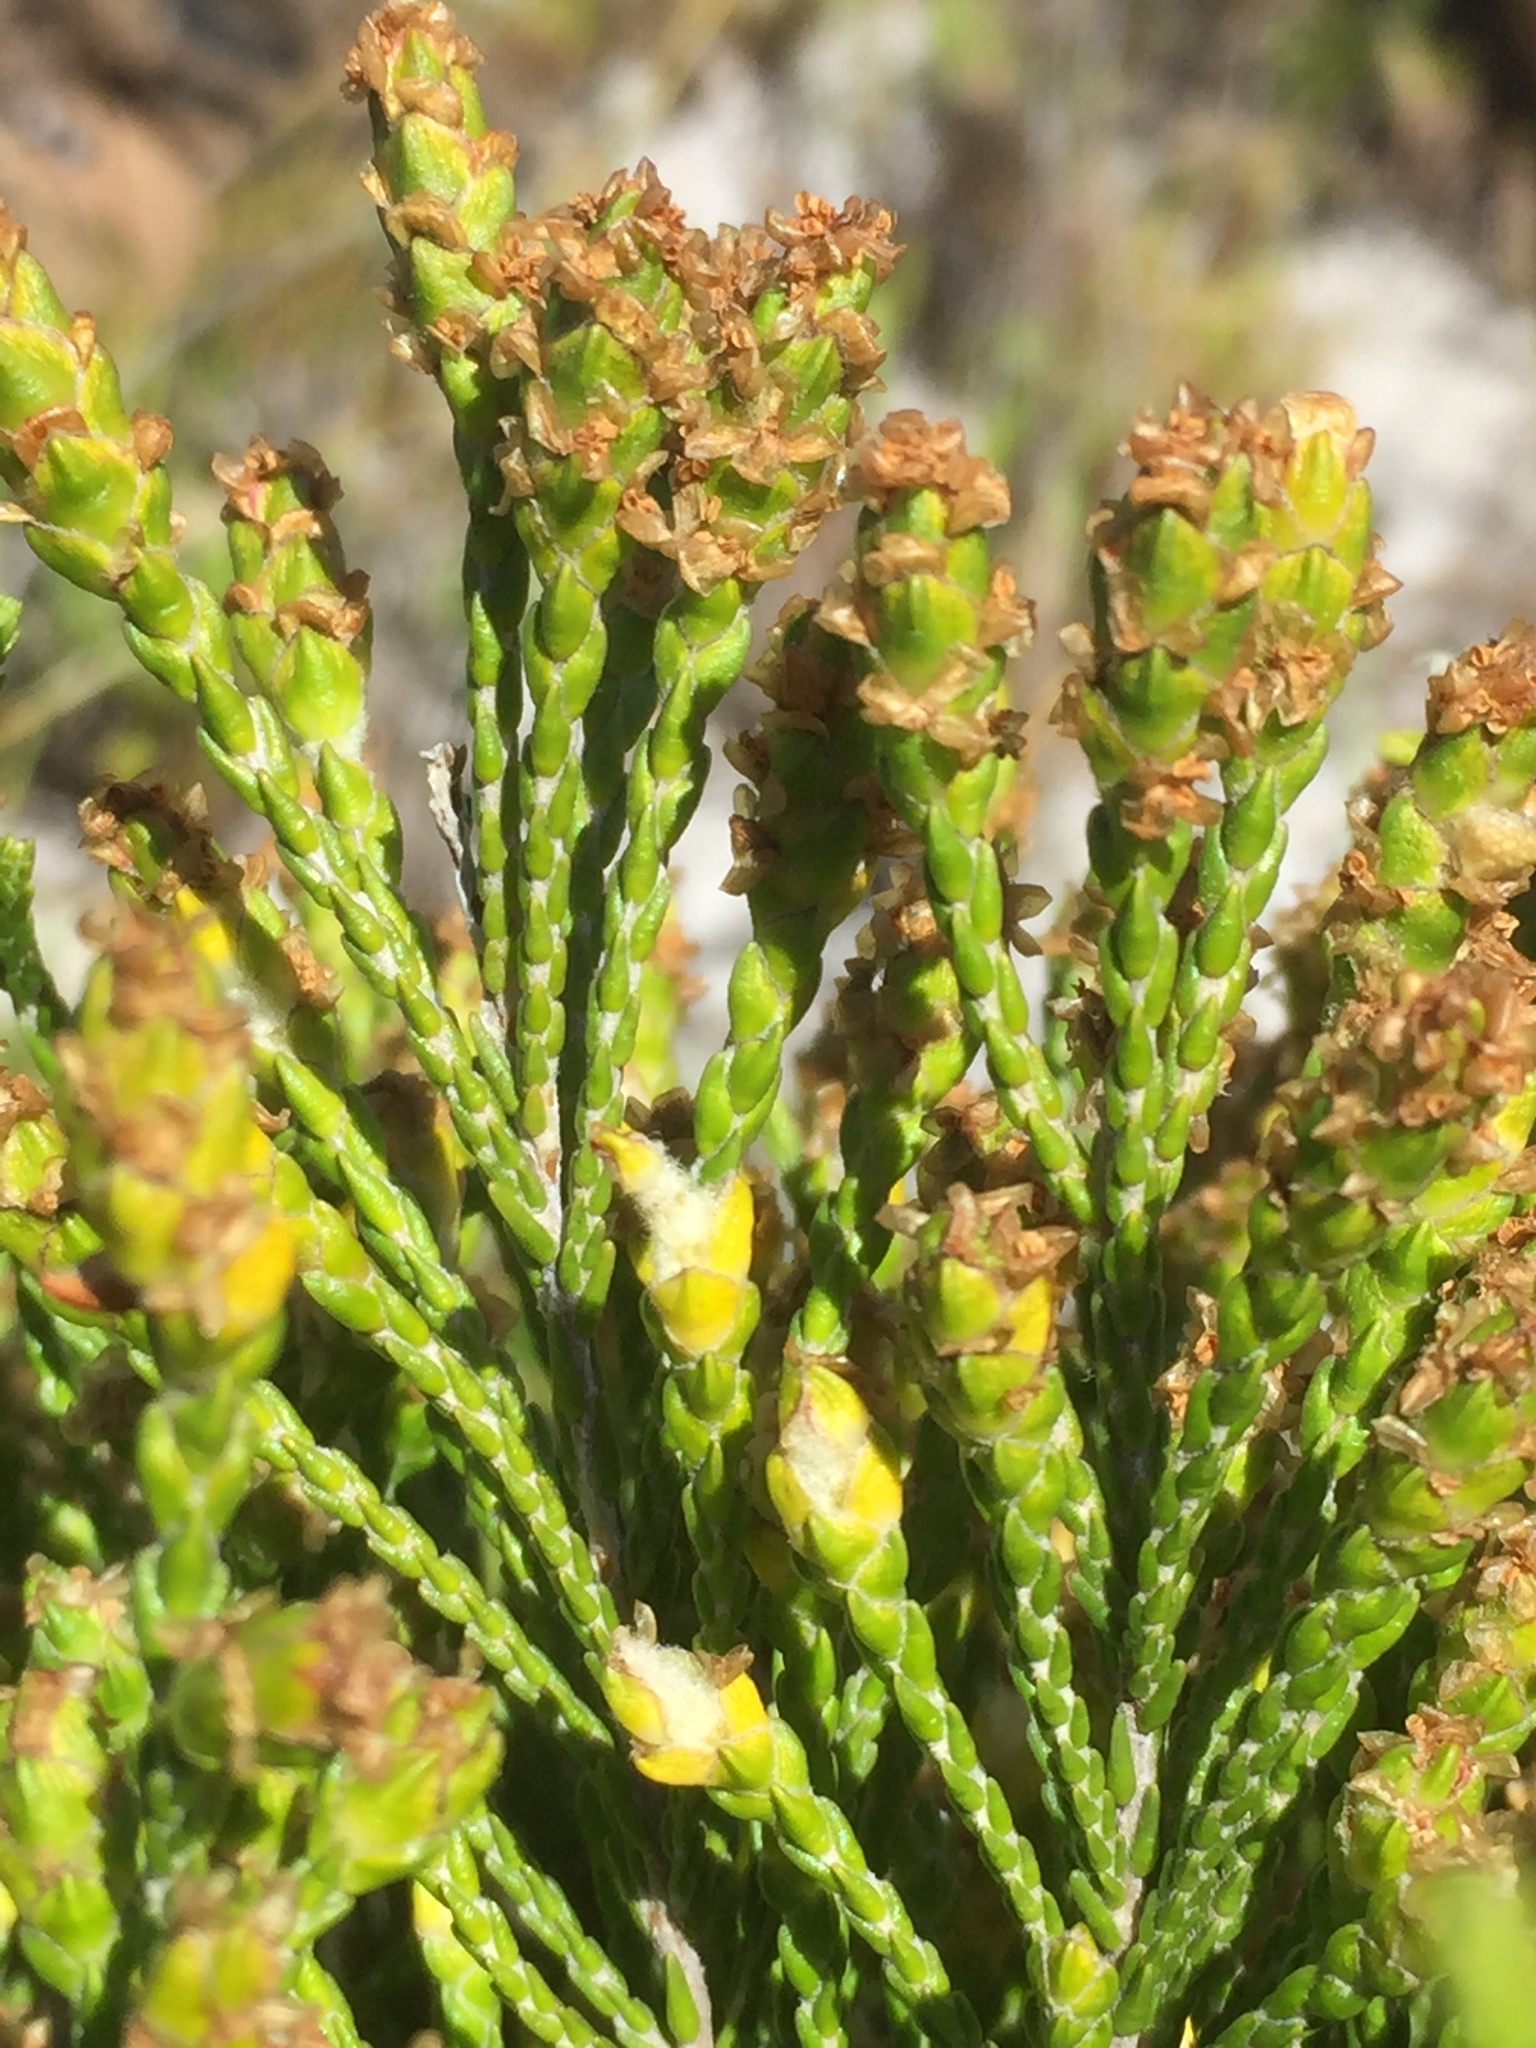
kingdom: Plantae
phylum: Tracheophyta
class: Magnoliopsida
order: Malvales
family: Thymelaeaceae
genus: Passerina
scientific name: Passerina paleacea
